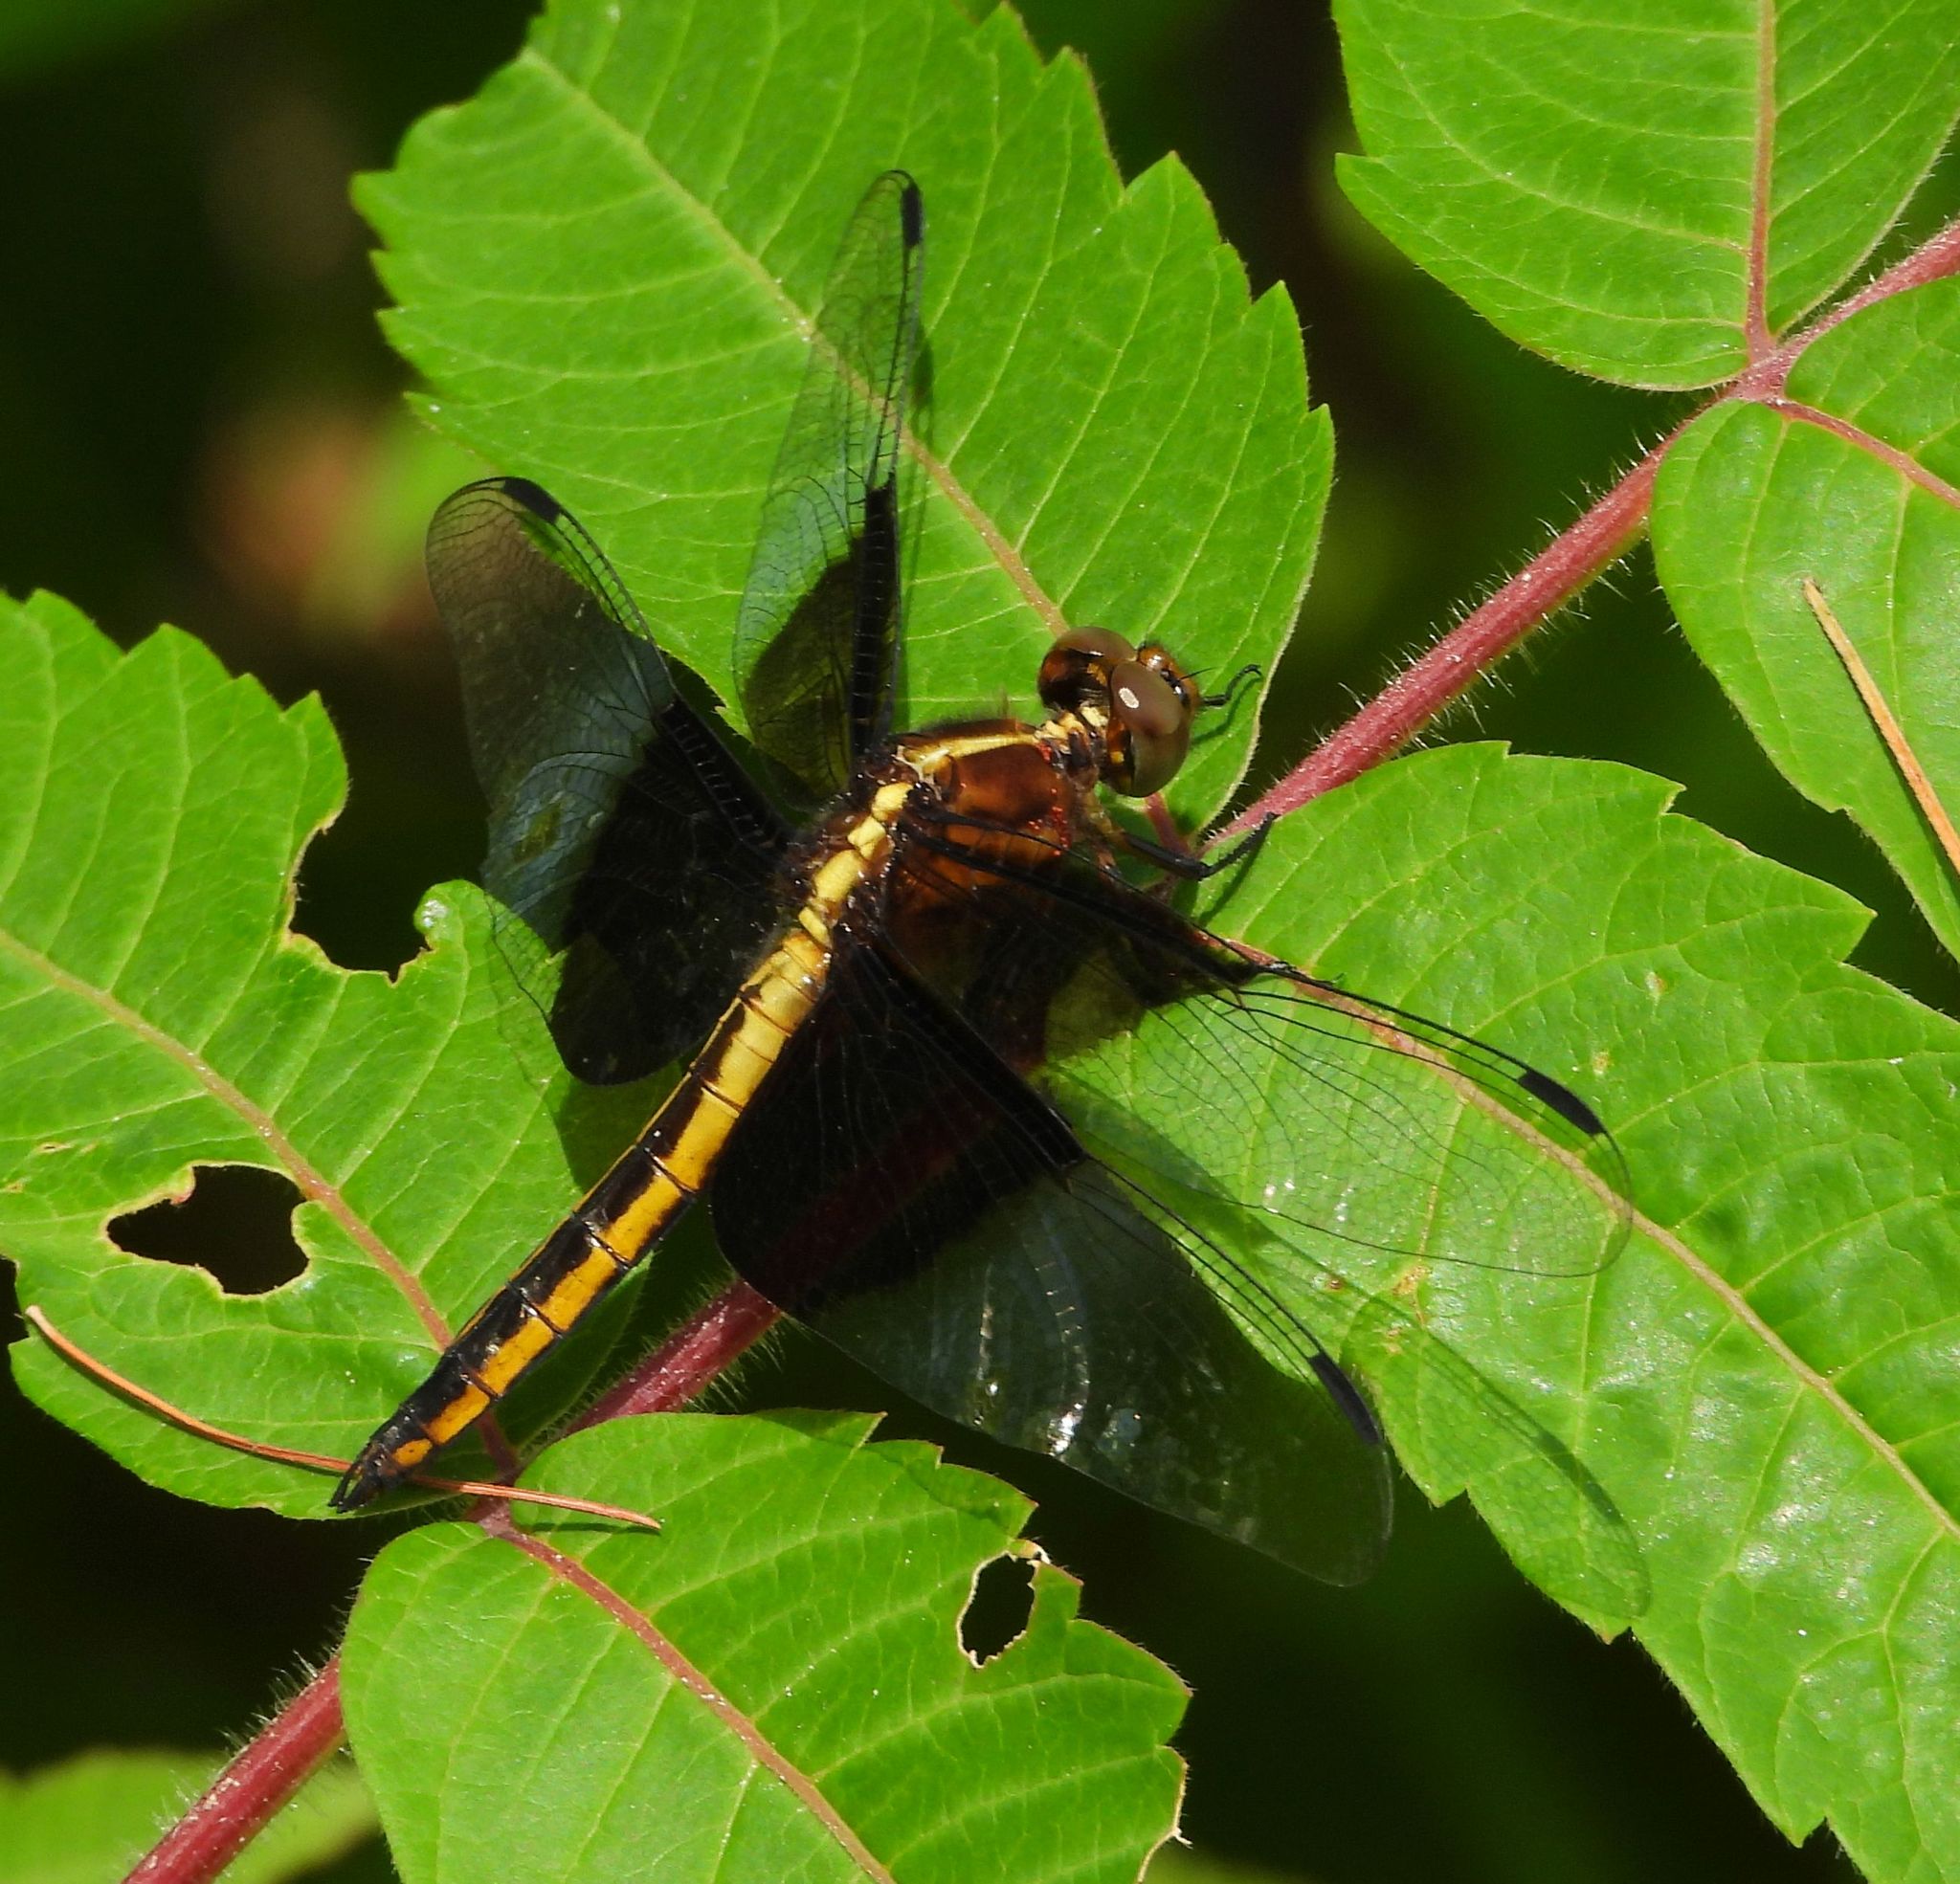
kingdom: Animalia
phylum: Arthropoda
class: Insecta
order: Odonata
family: Libellulidae
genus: Libellula
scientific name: Libellula luctuosa
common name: Widow skimmer
